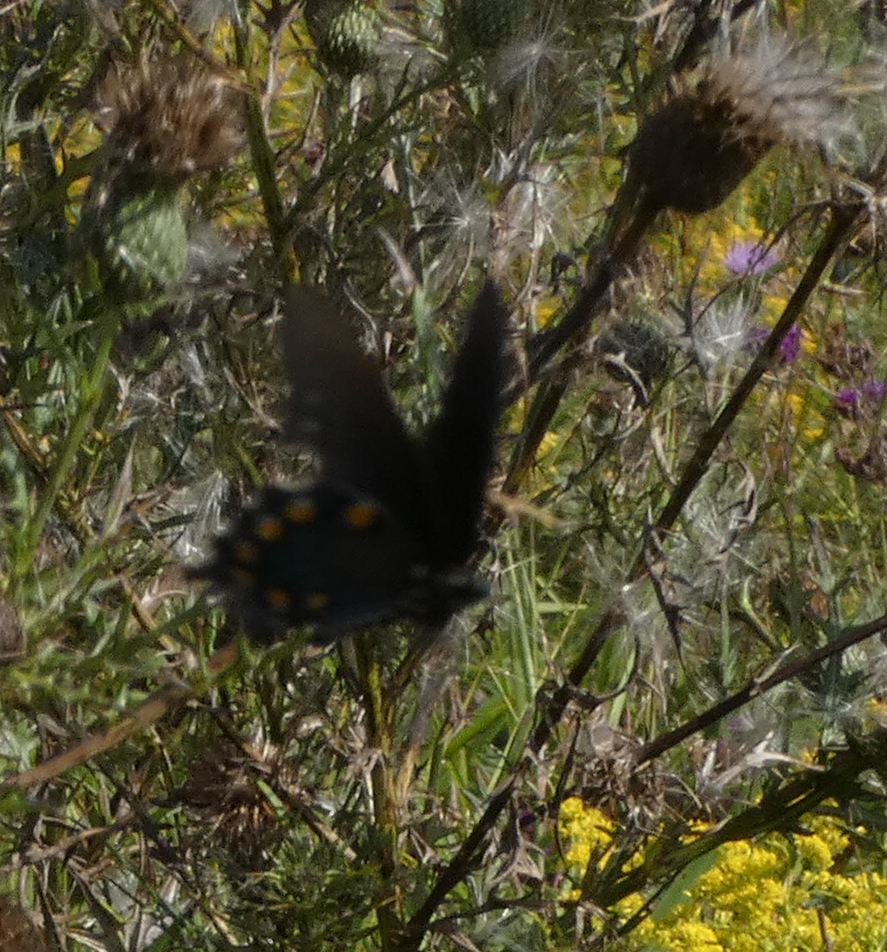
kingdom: Animalia
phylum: Arthropoda
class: Insecta
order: Lepidoptera
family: Papilionidae
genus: Battus
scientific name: Battus philenor
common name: Pipevine swallowtail
